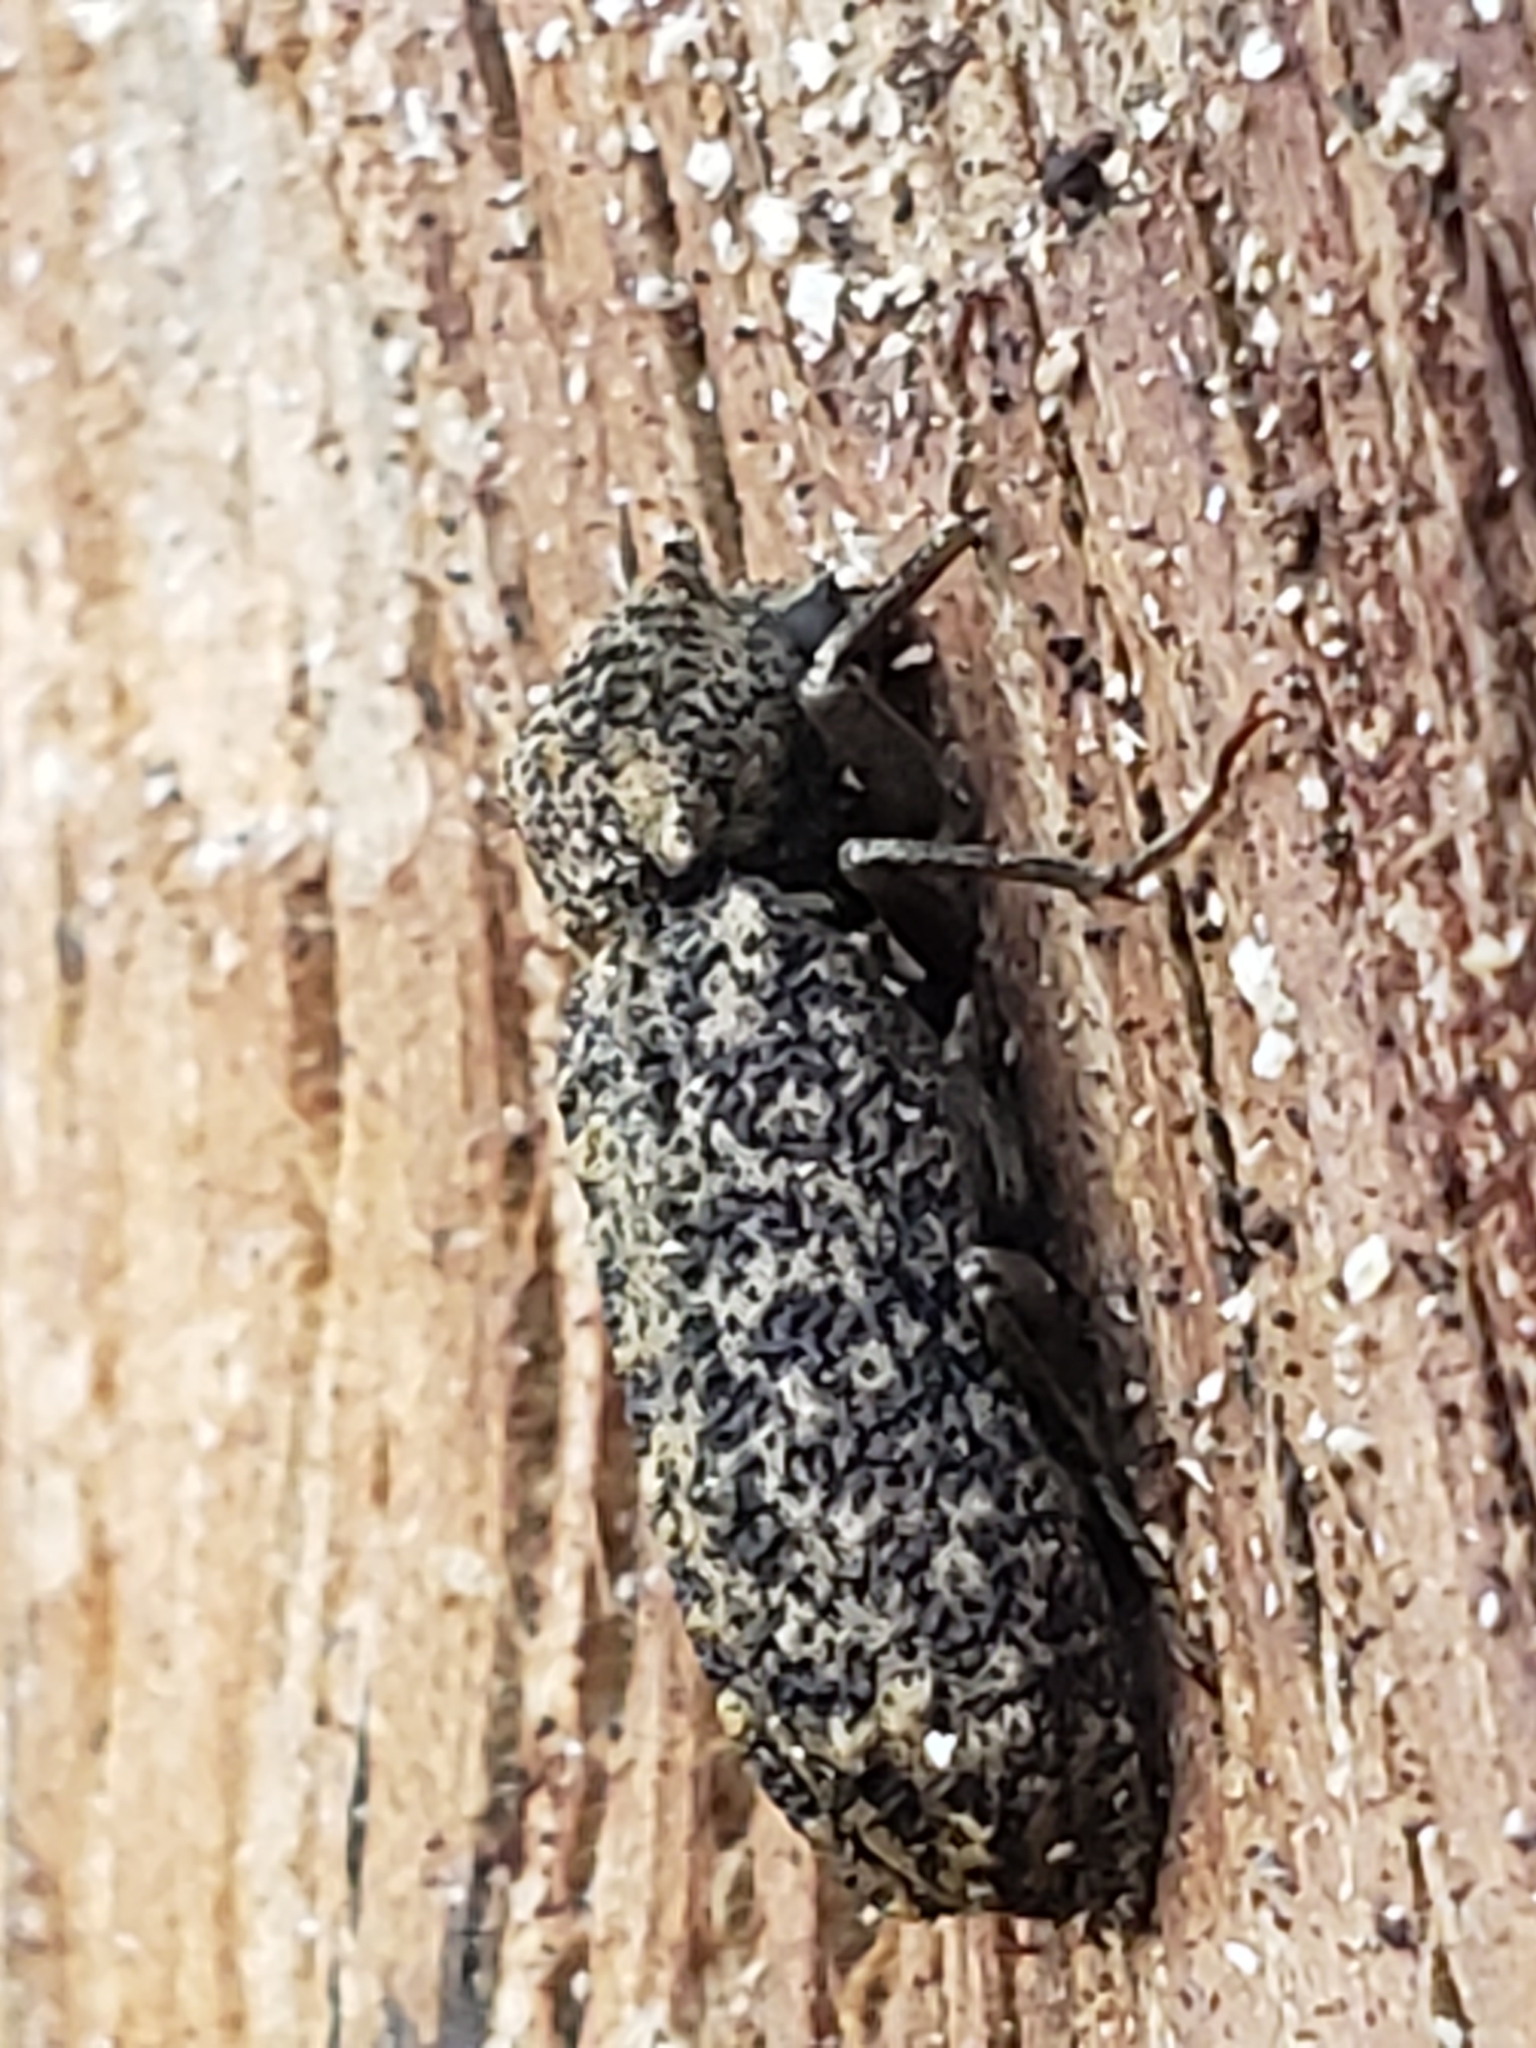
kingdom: Animalia
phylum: Arthropoda
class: Insecta
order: Coleoptera
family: Bostrichidae
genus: Lichenophanes
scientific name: Lichenophanes bicornis
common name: Two-horned powder-post beetle
